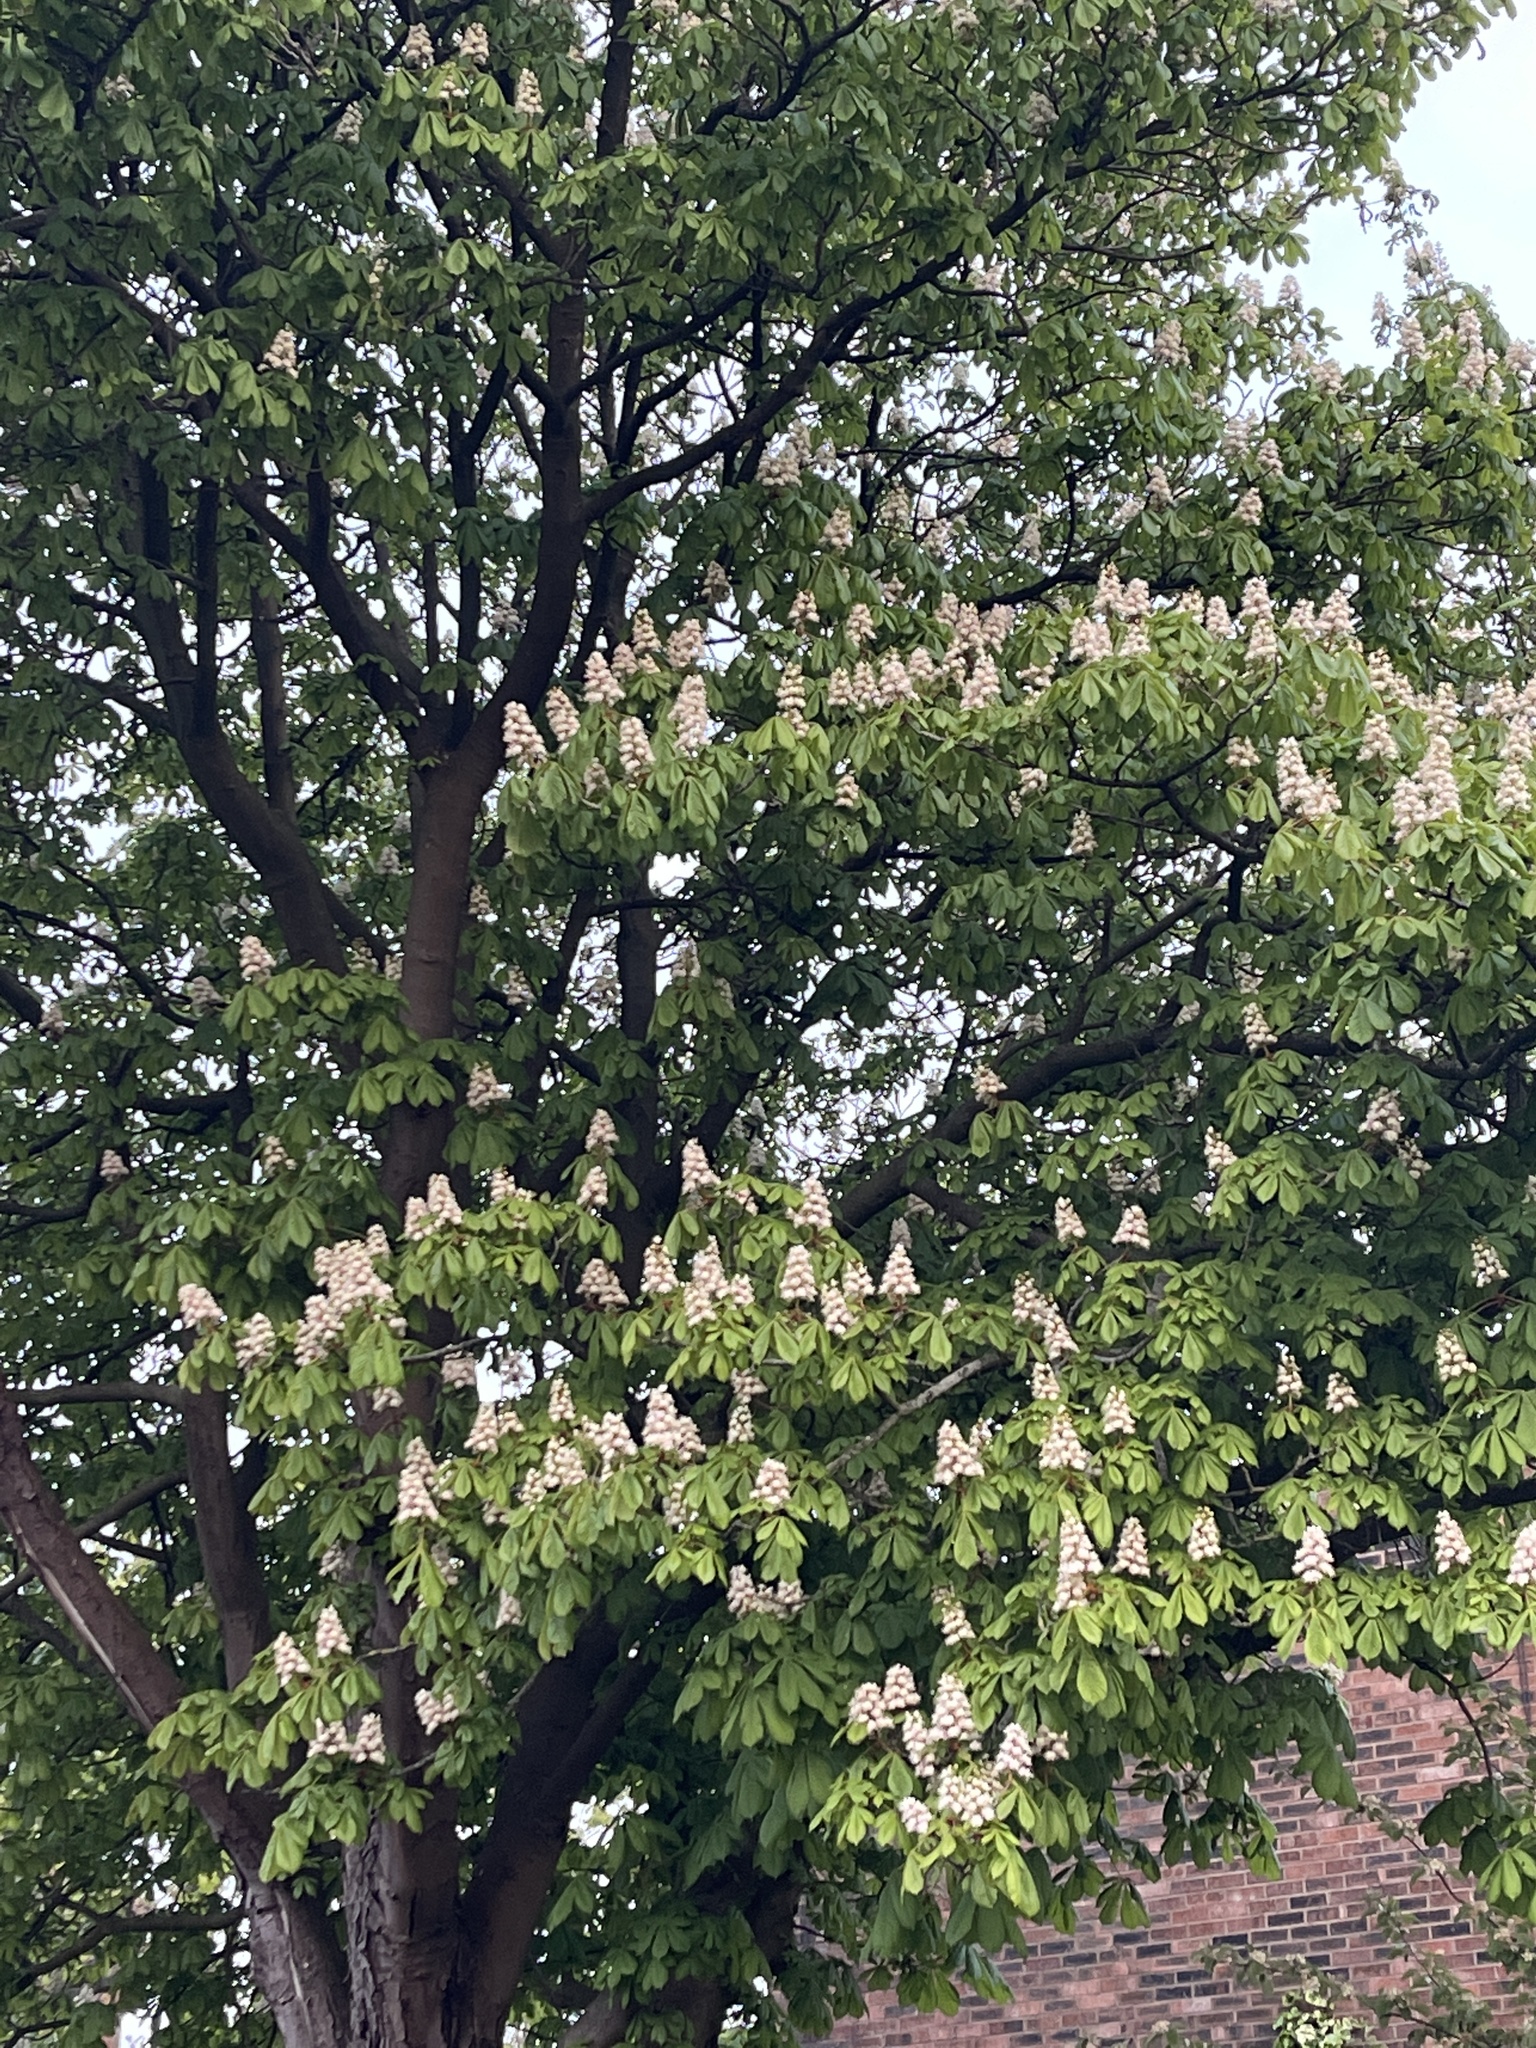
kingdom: Plantae
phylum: Tracheophyta
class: Magnoliopsida
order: Sapindales
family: Sapindaceae
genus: Aesculus
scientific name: Aesculus hippocastanum
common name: Horse-chestnut
